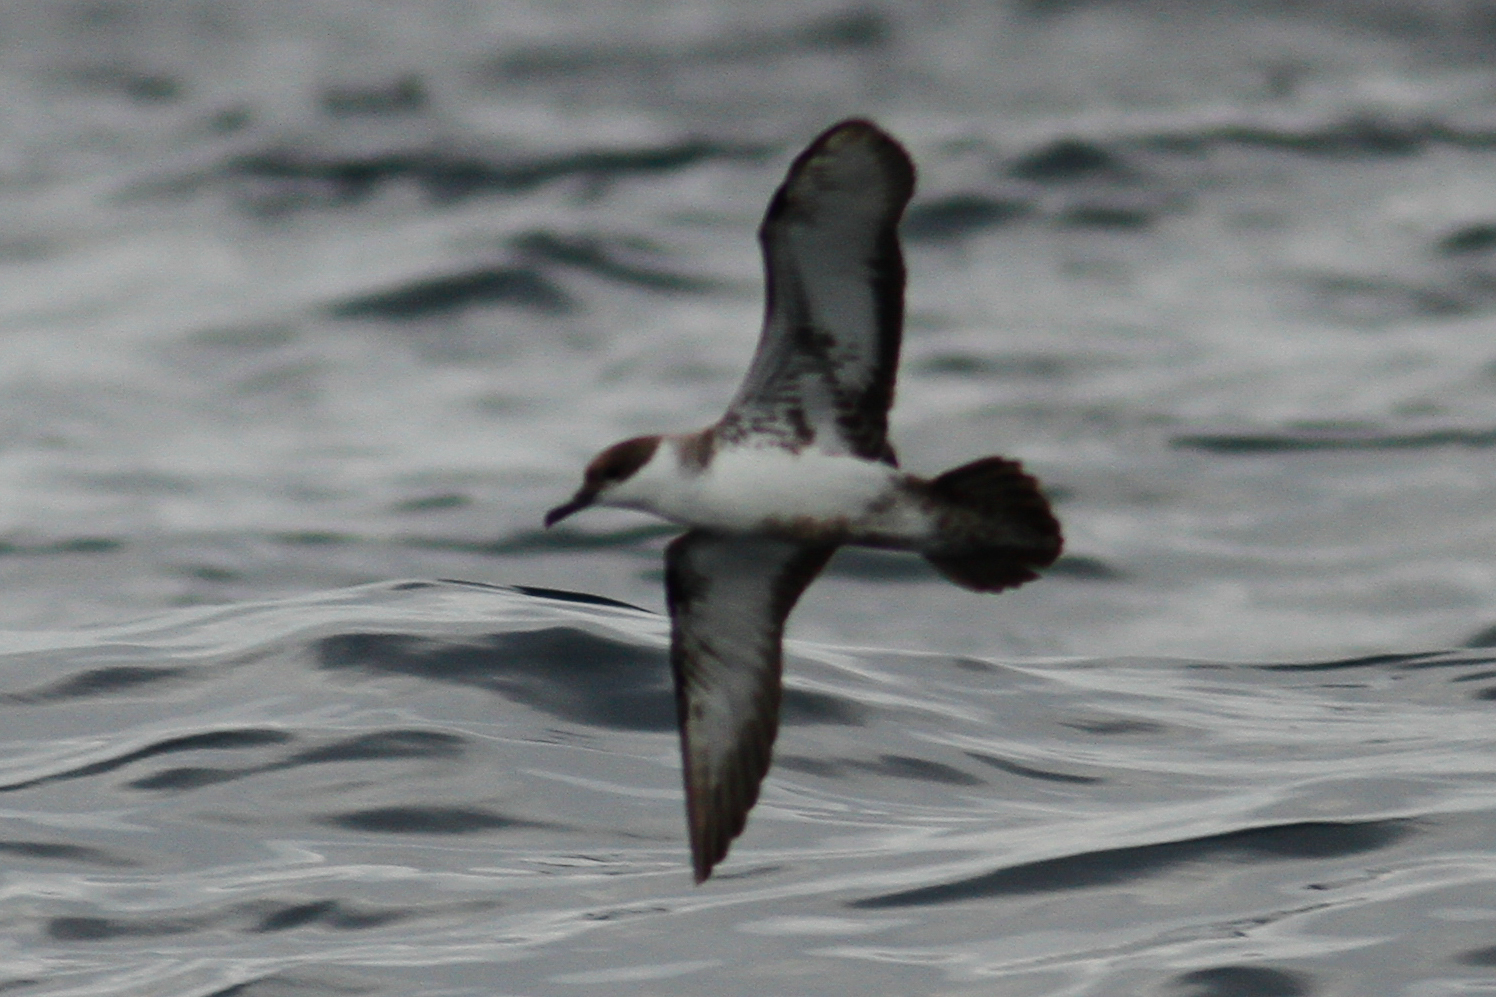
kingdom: Animalia
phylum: Chordata
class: Aves
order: Procellariiformes
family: Procellariidae
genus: Puffinus
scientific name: Puffinus gravis
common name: Great shearwater
